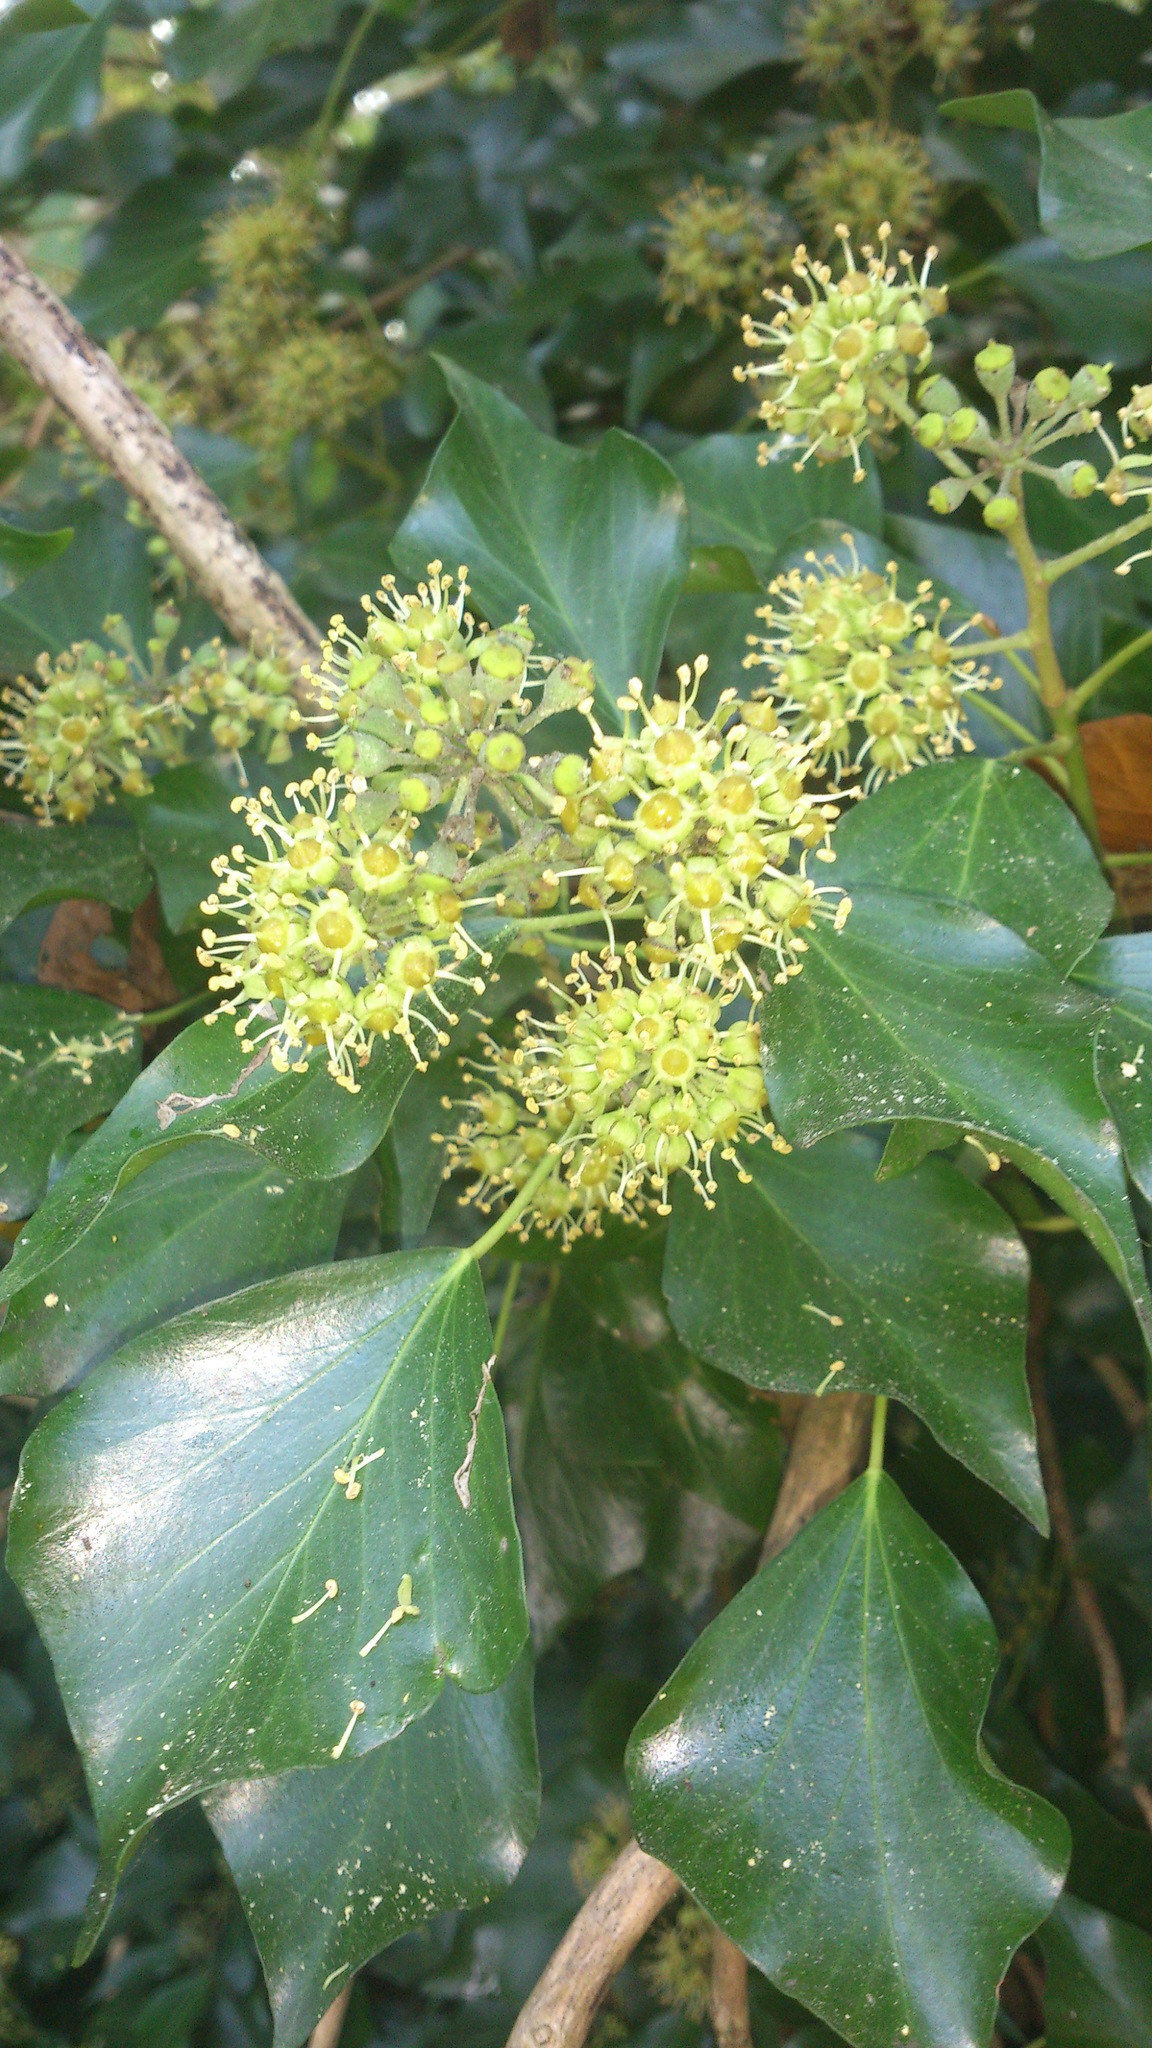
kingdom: Plantae
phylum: Tracheophyta
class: Magnoliopsida
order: Apiales
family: Araliaceae
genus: Hedera
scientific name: Hedera helix
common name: Ivy
